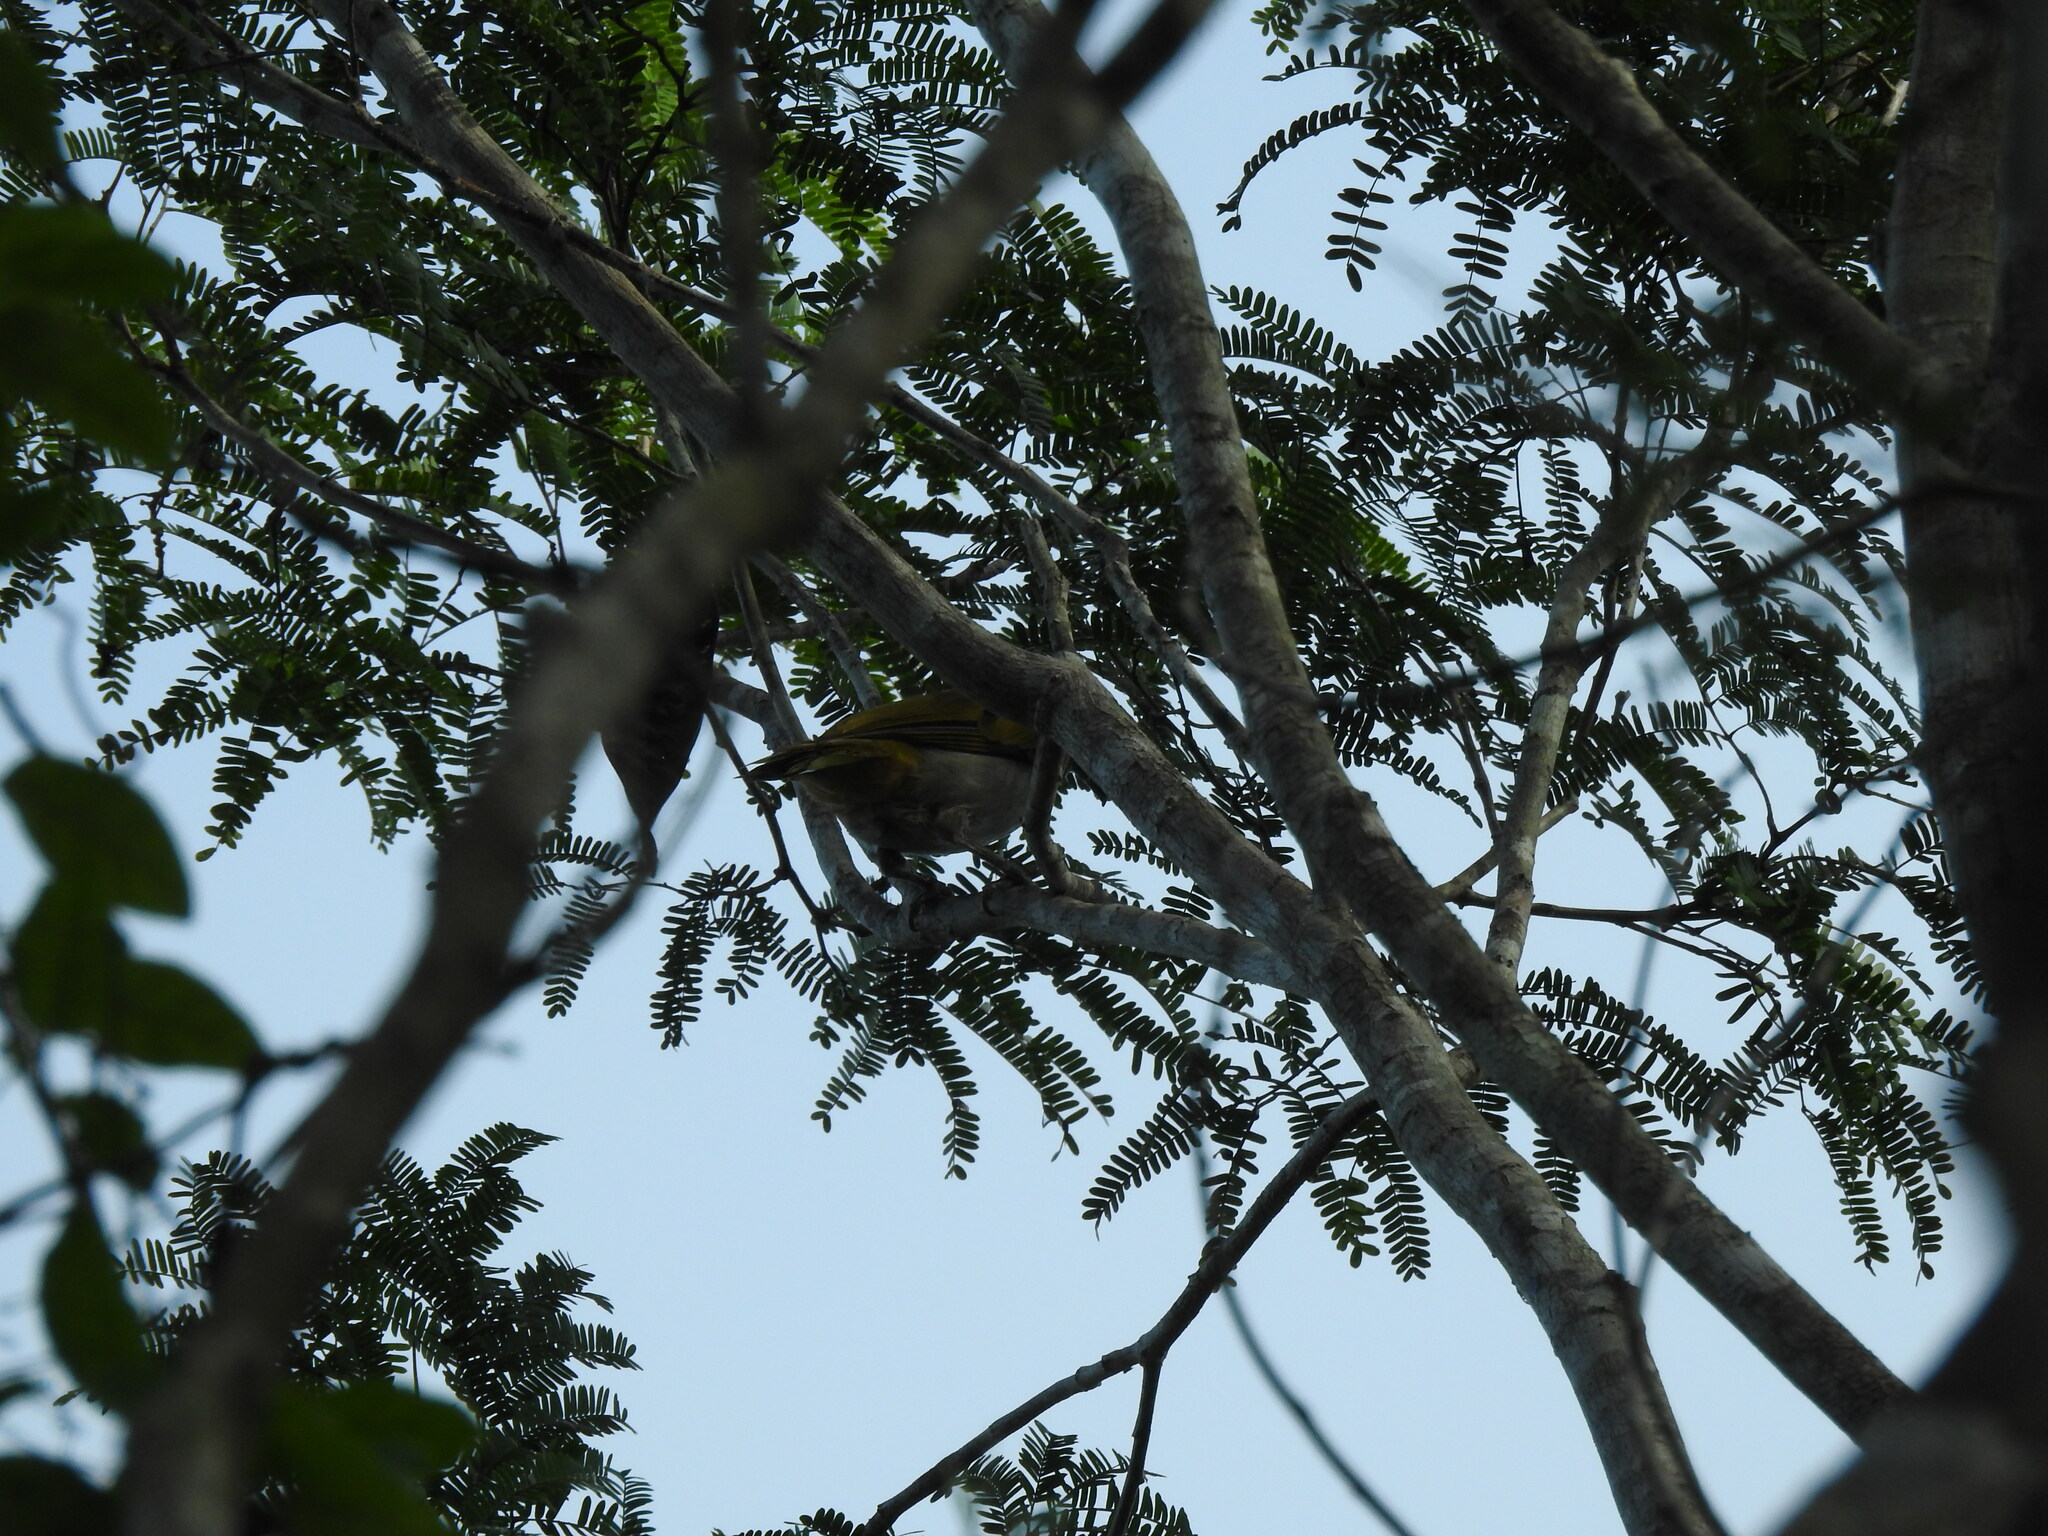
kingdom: Animalia
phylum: Chordata
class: Aves
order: Passeriformes
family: Thraupidae
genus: Saltator
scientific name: Saltator atriceps
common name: Black-headed saltator
